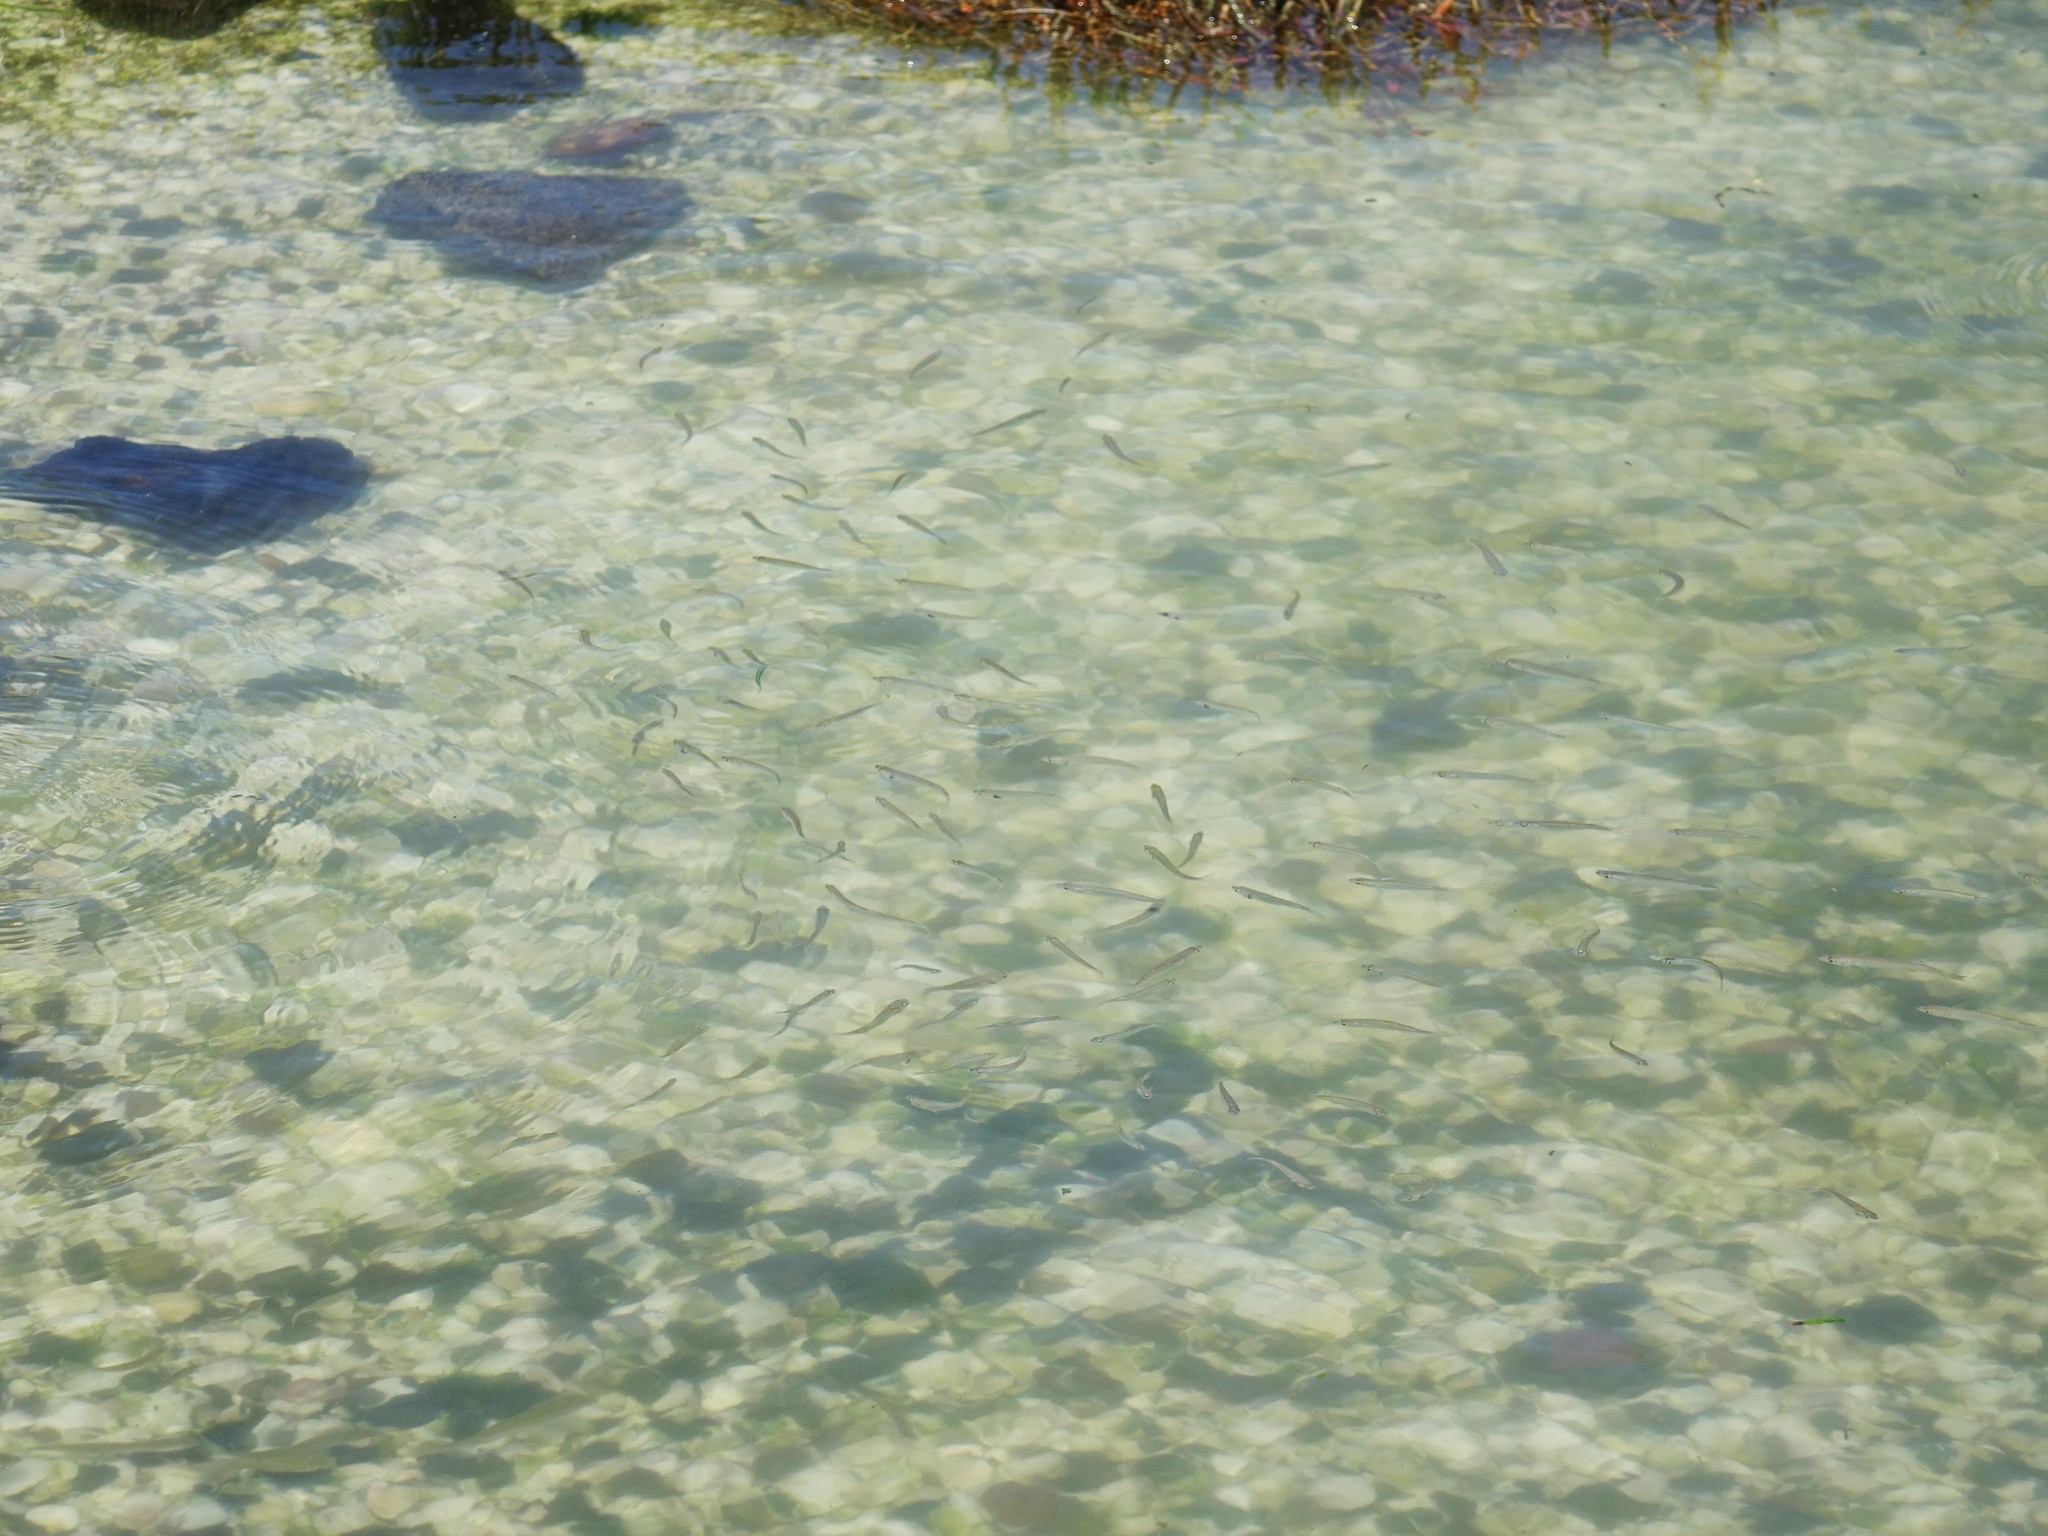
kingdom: Animalia
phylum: Chordata
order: Mugiliformes
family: Mugilidae
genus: Aldrichetta
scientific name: Aldrichetta forsteri
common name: Yellow-eye mullet
